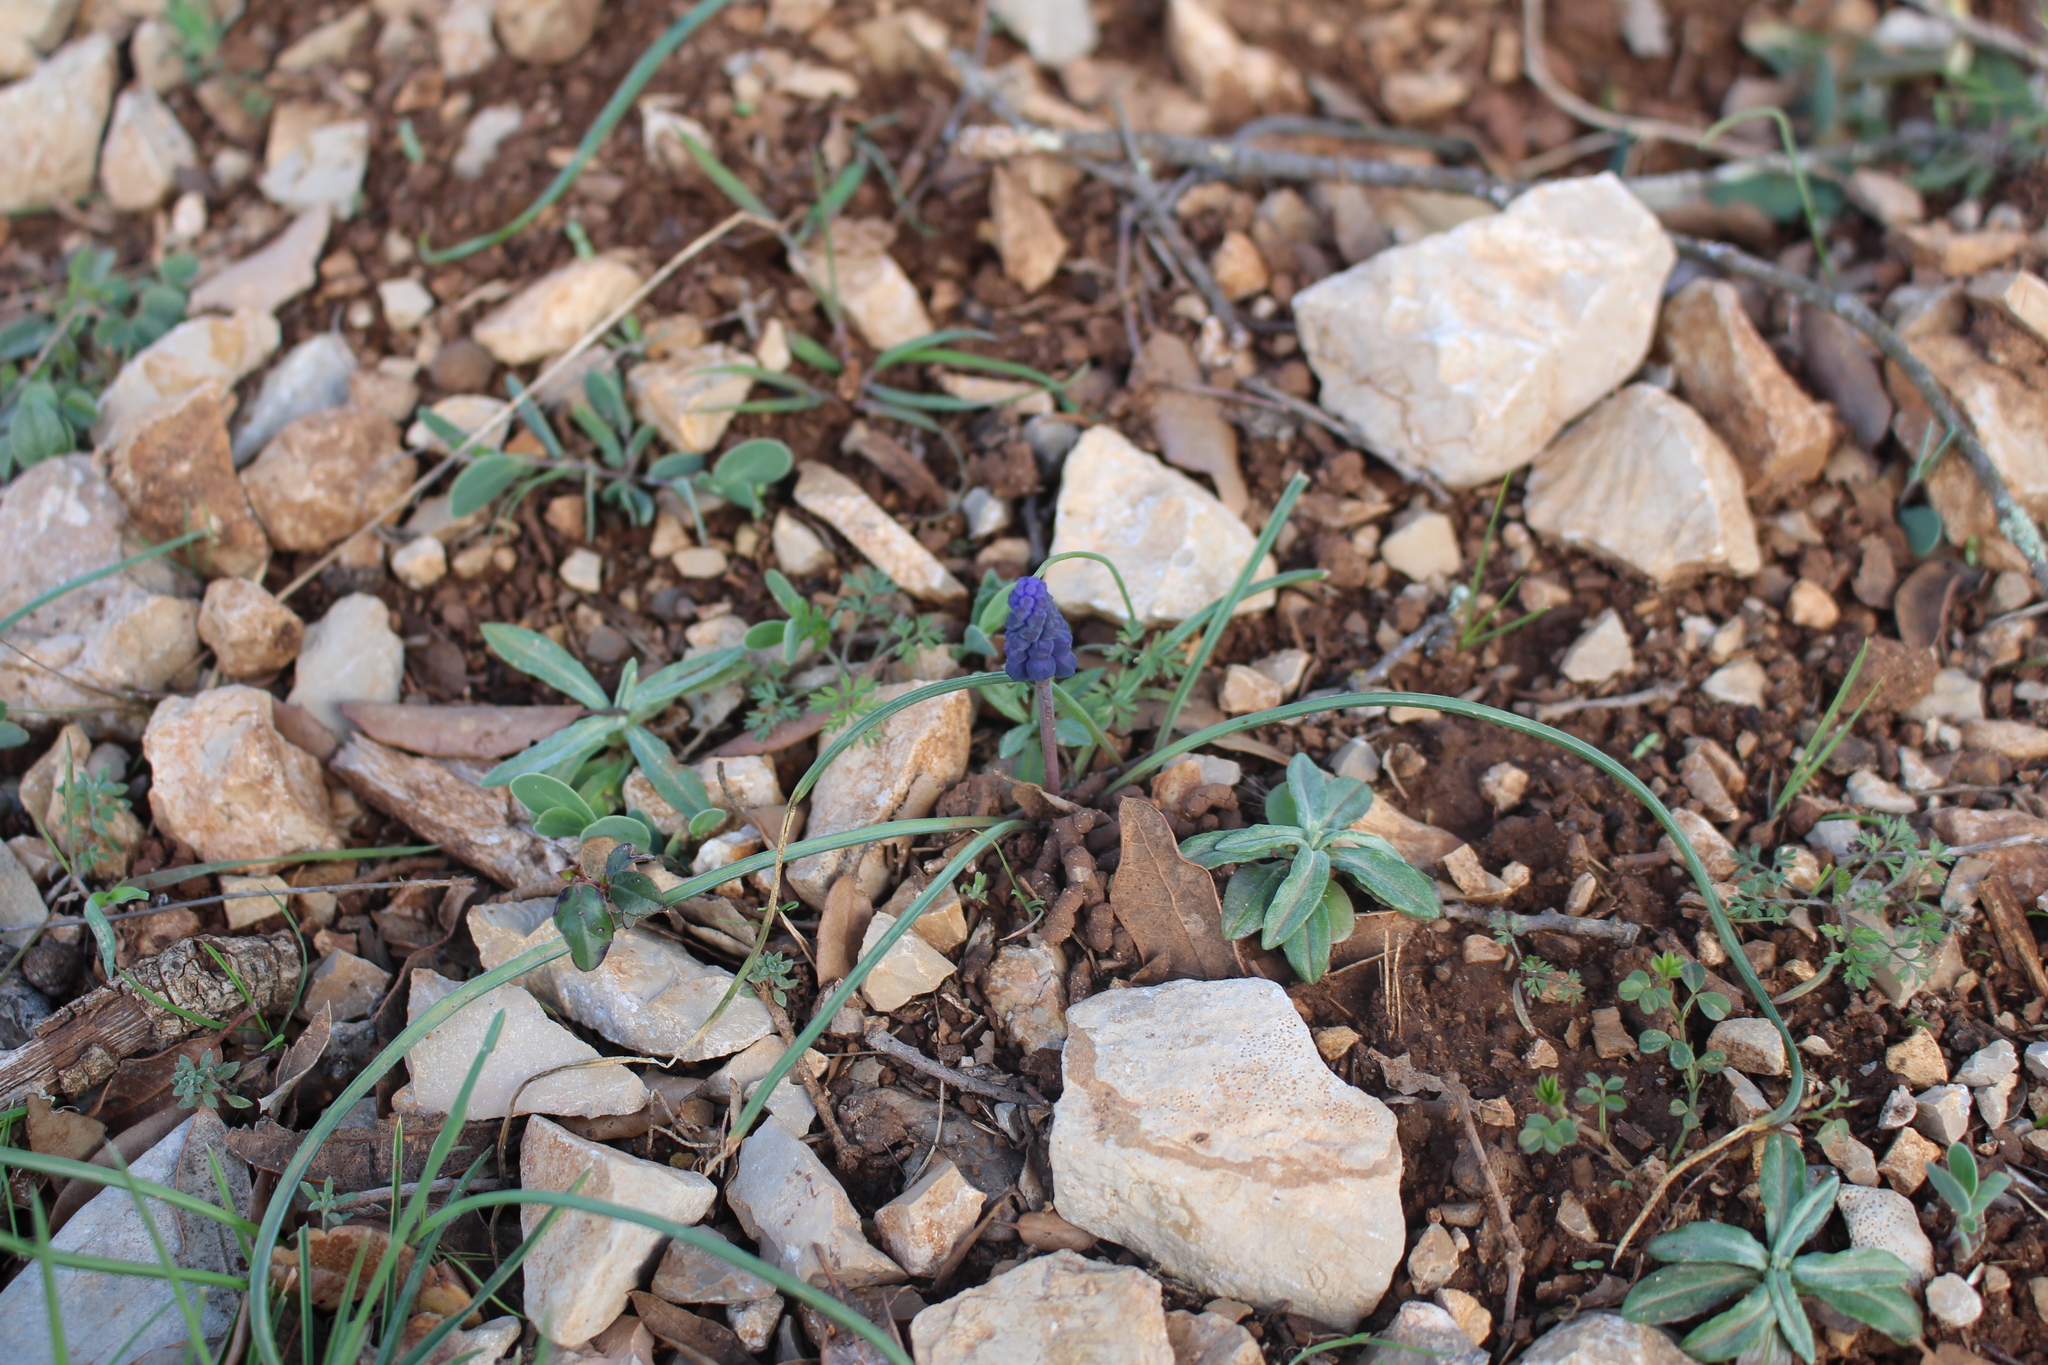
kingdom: Plantae
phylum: Tracheophyta
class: Liliopsida
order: Asparagales
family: Asparagaceae
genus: Muscari
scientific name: Muscari neglectum
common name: Grape-hyacinth
